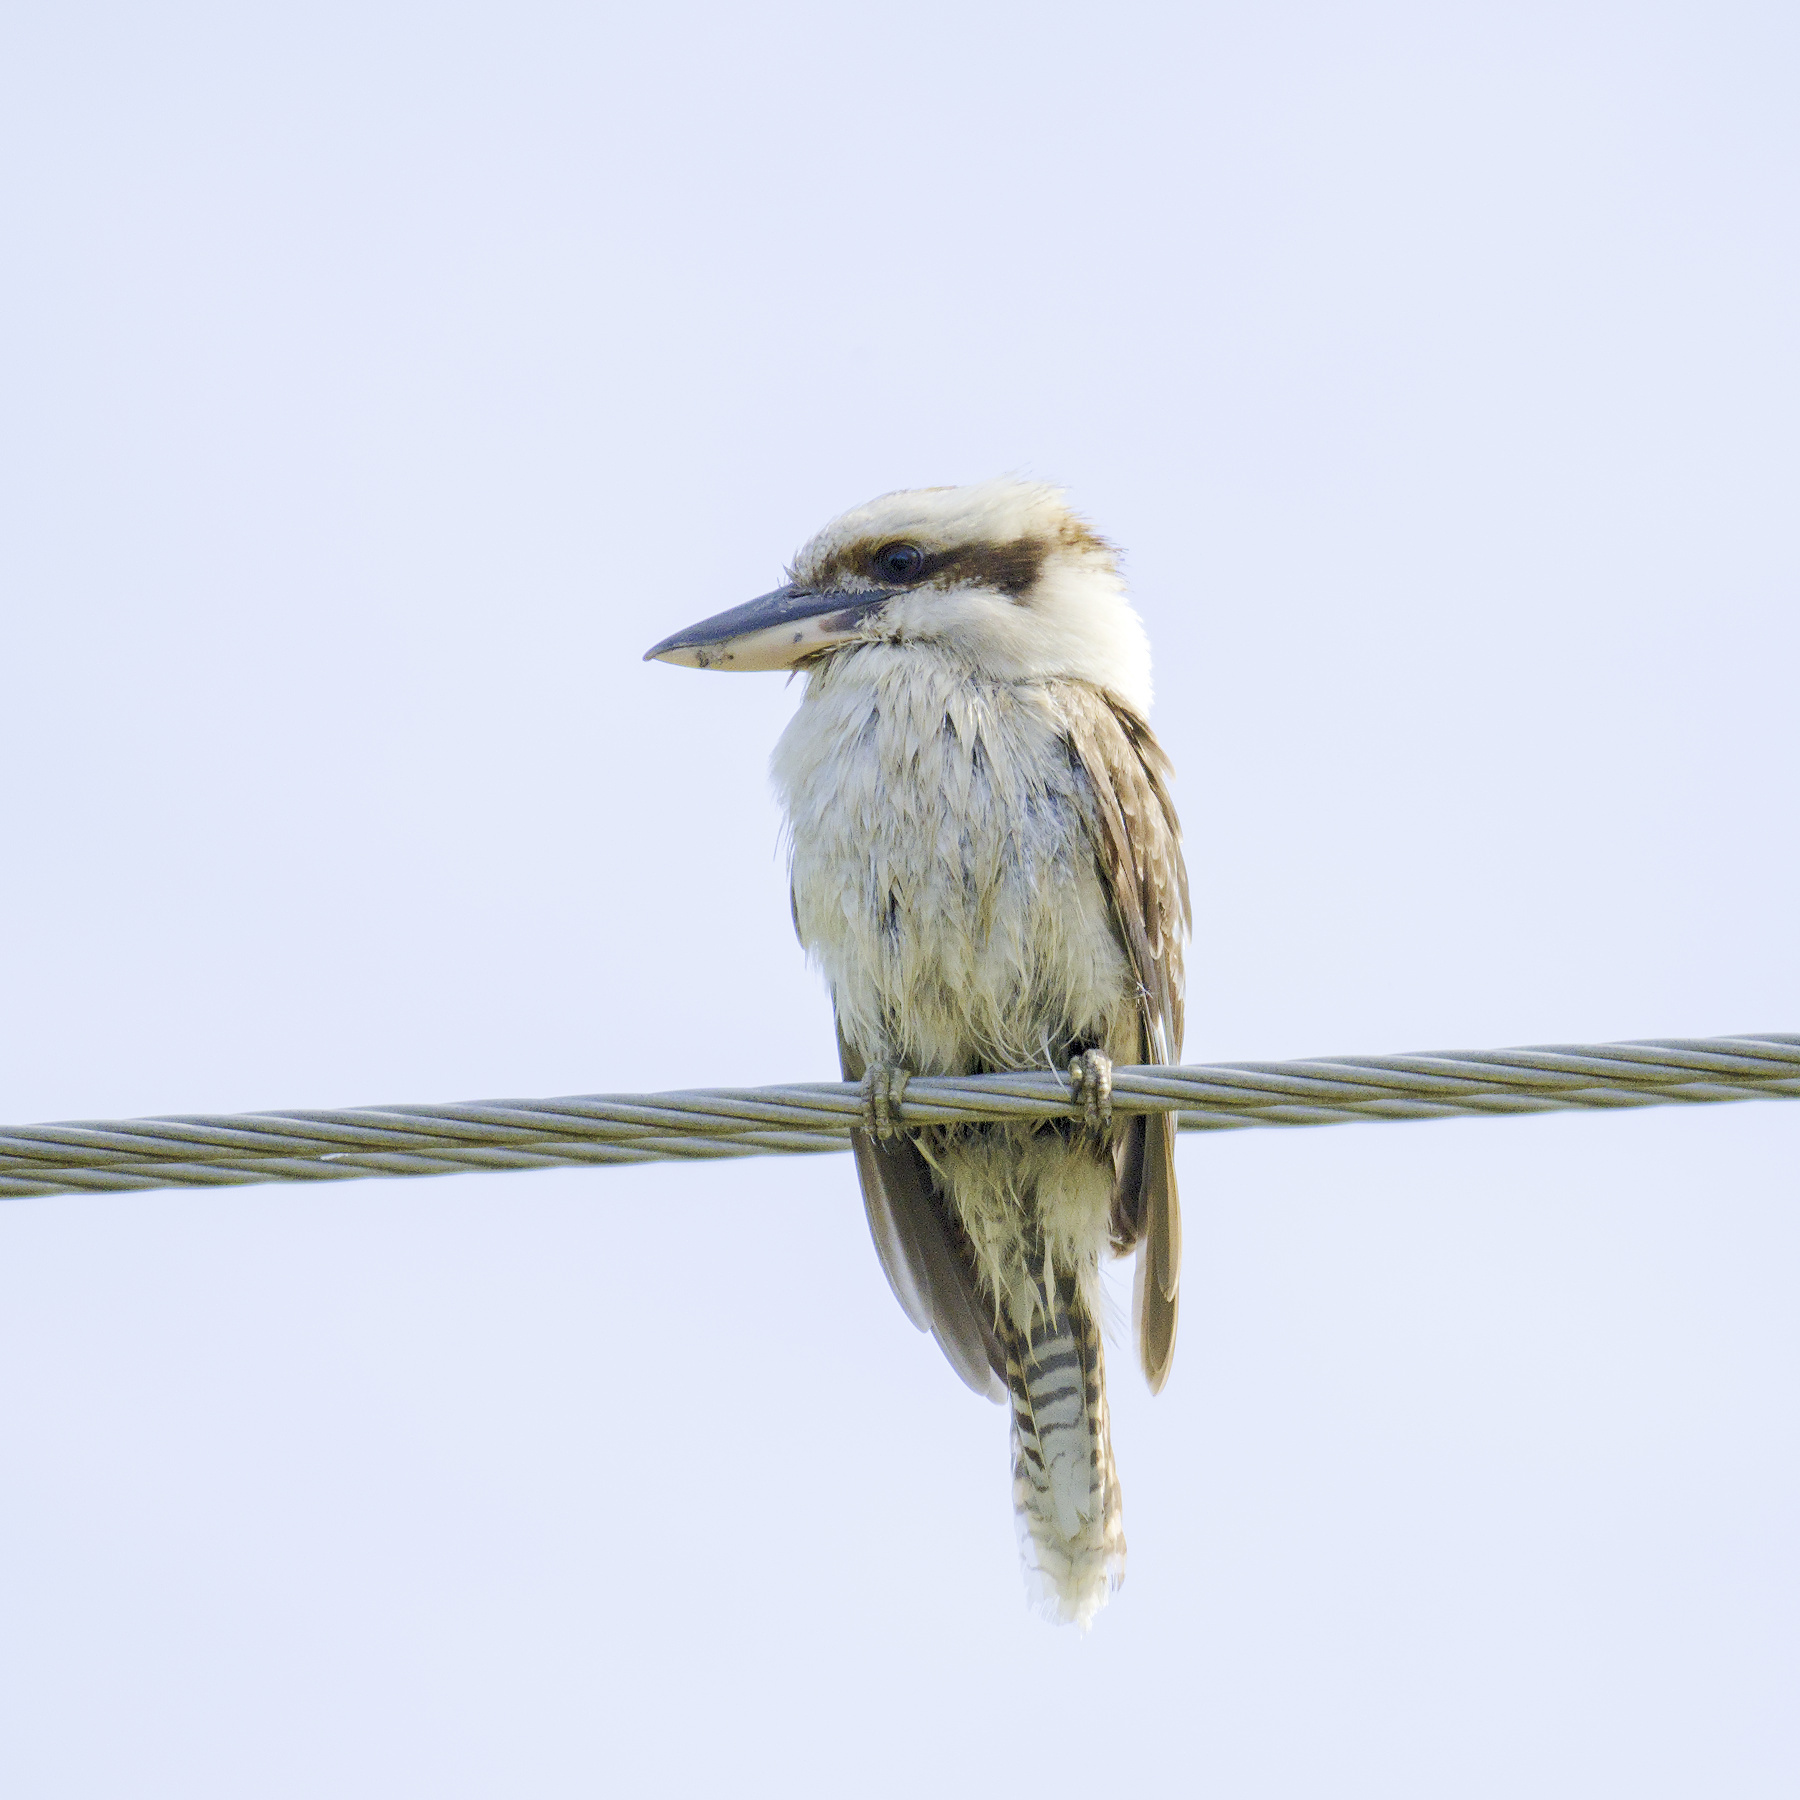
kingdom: Animalia
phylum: Chordata
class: Aves
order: Coraciiformes
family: Alcedinidae
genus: Dacelo
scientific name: Dacelo novaeguineae
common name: Laughing kookaburra
